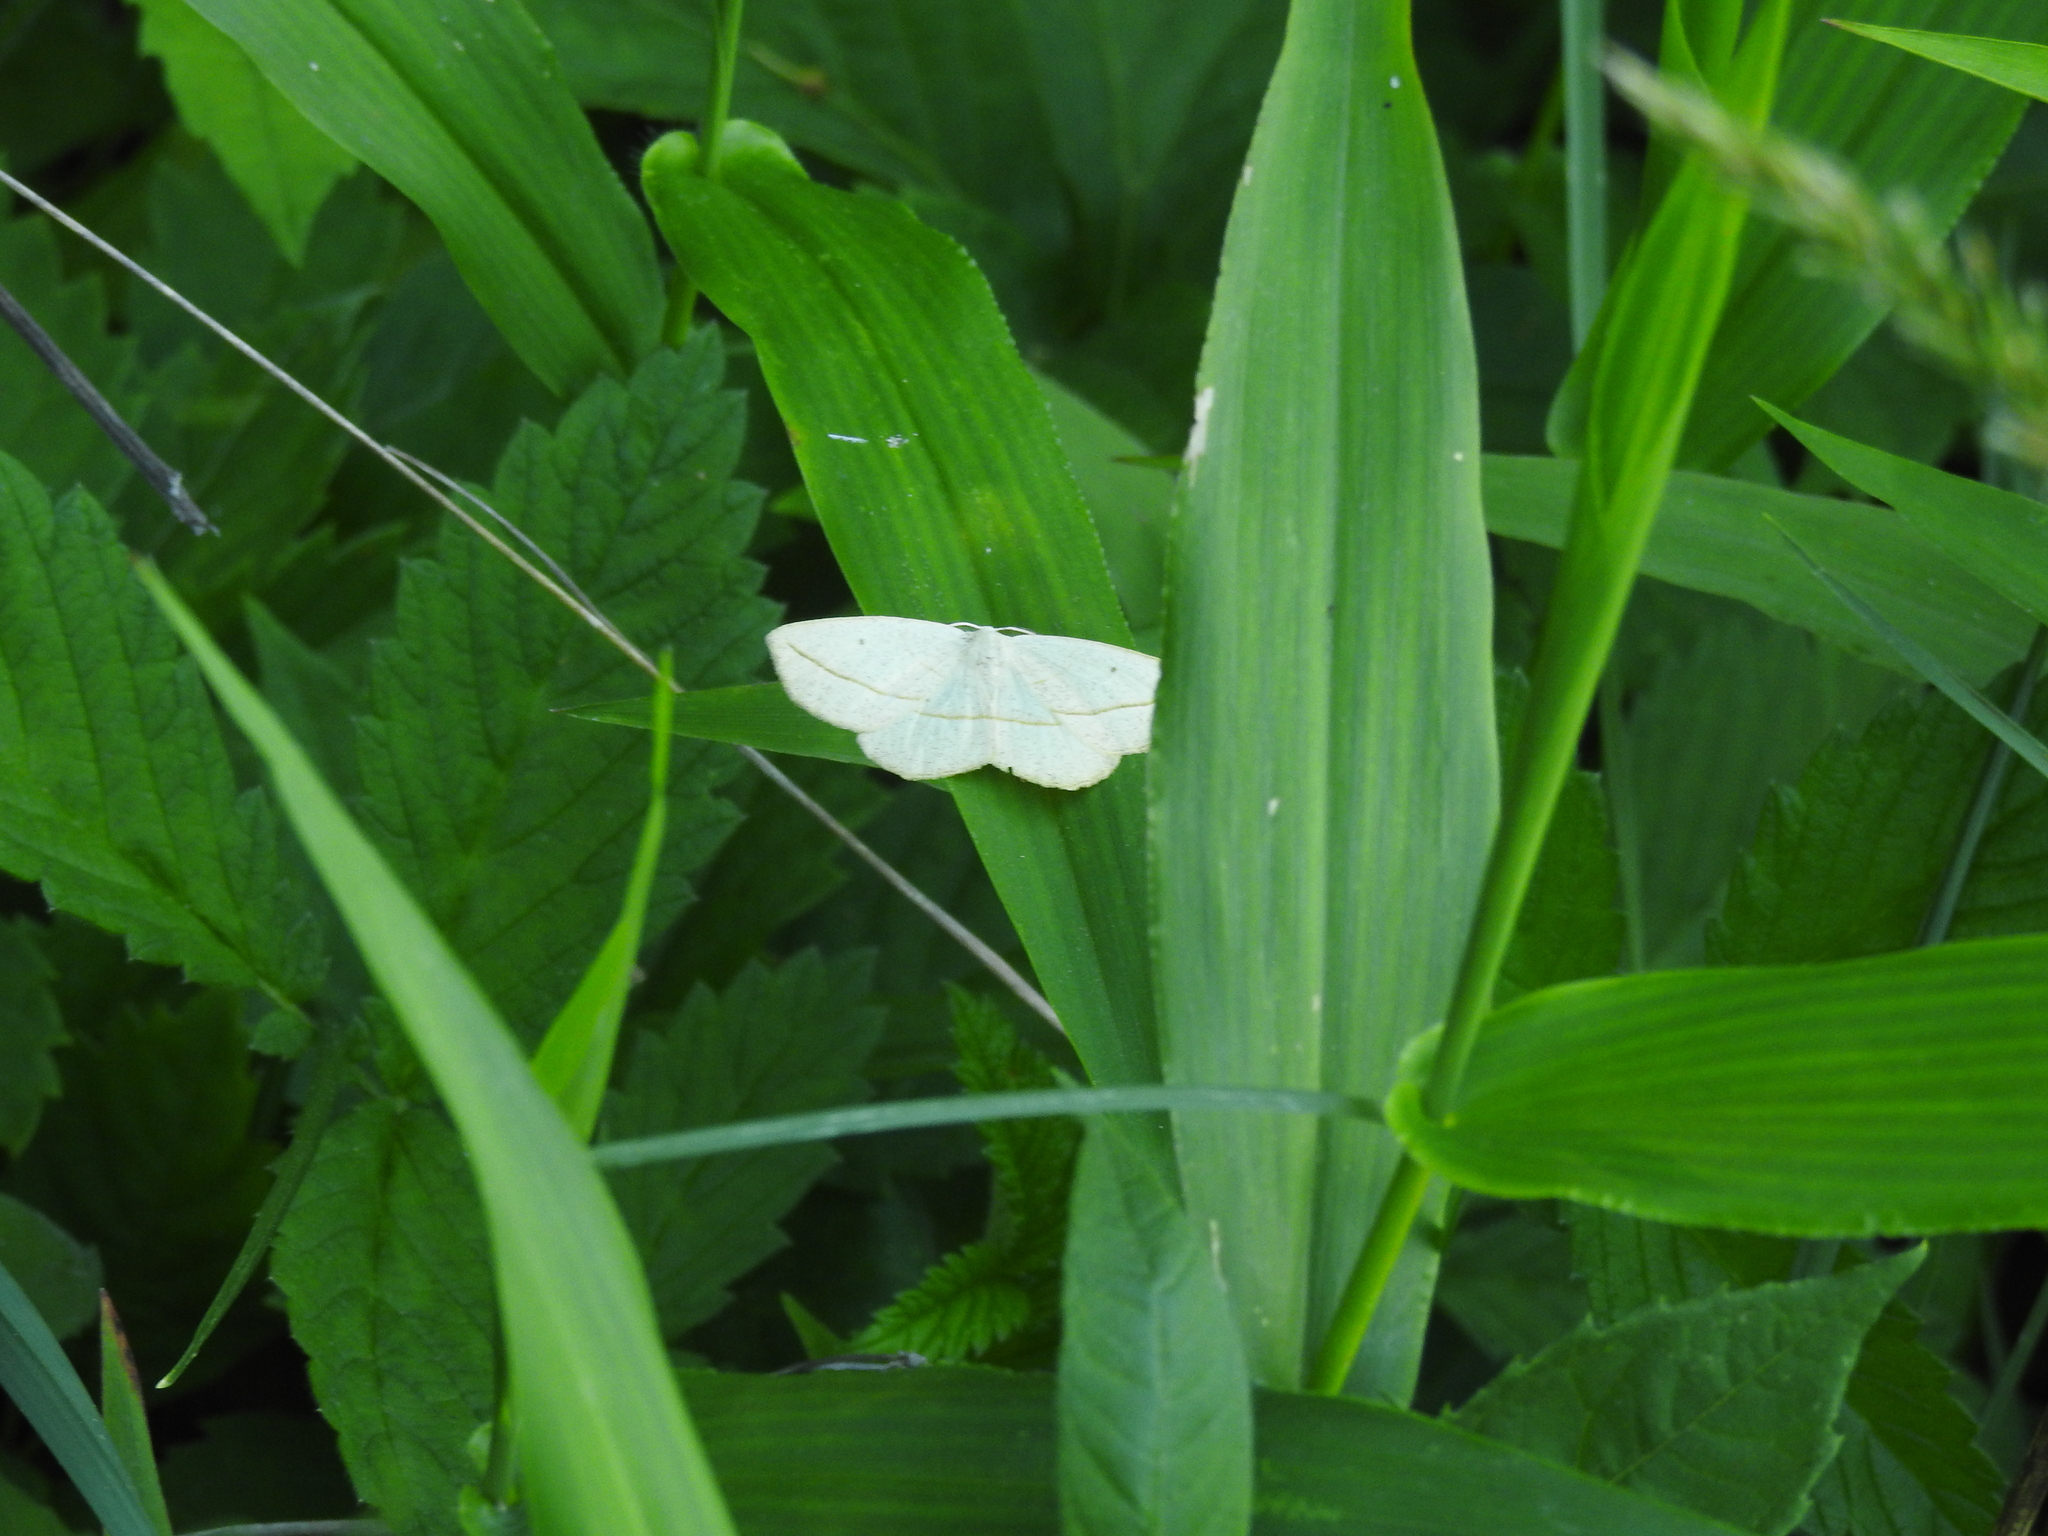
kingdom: Animalia
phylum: Arthropoda
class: Insecta
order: Lepidoptera
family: Geometridae
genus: Eusarca
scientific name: Eusarca confusaria
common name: Confused eusarca
